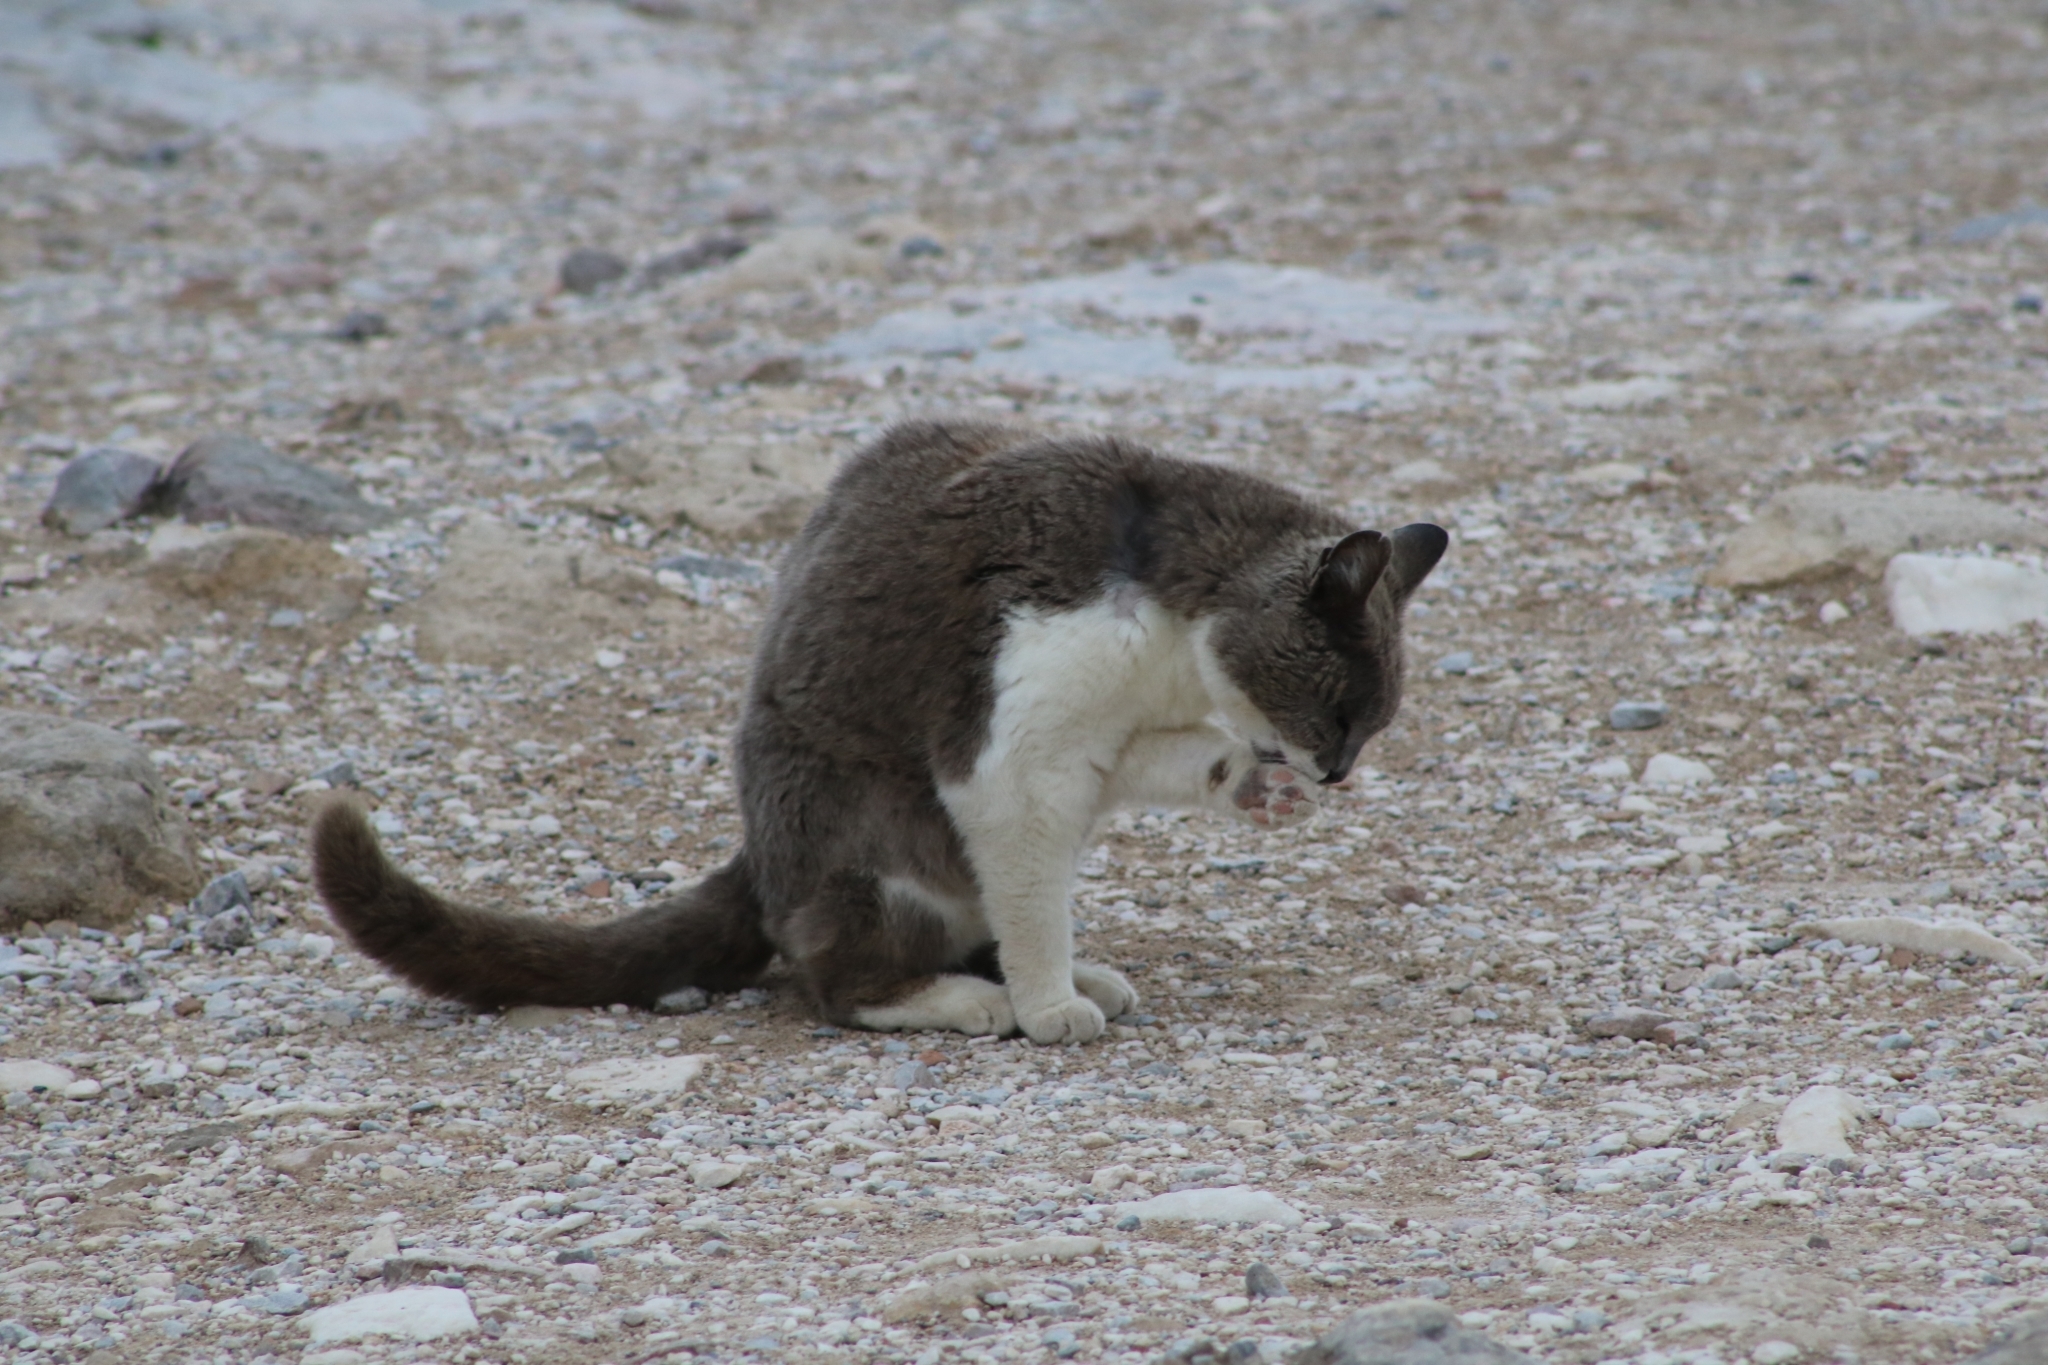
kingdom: Animalia
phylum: Chordata
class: Mammalia
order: Carnivora
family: Felidae
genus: Felis
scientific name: Felis catus
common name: Domestic cat
